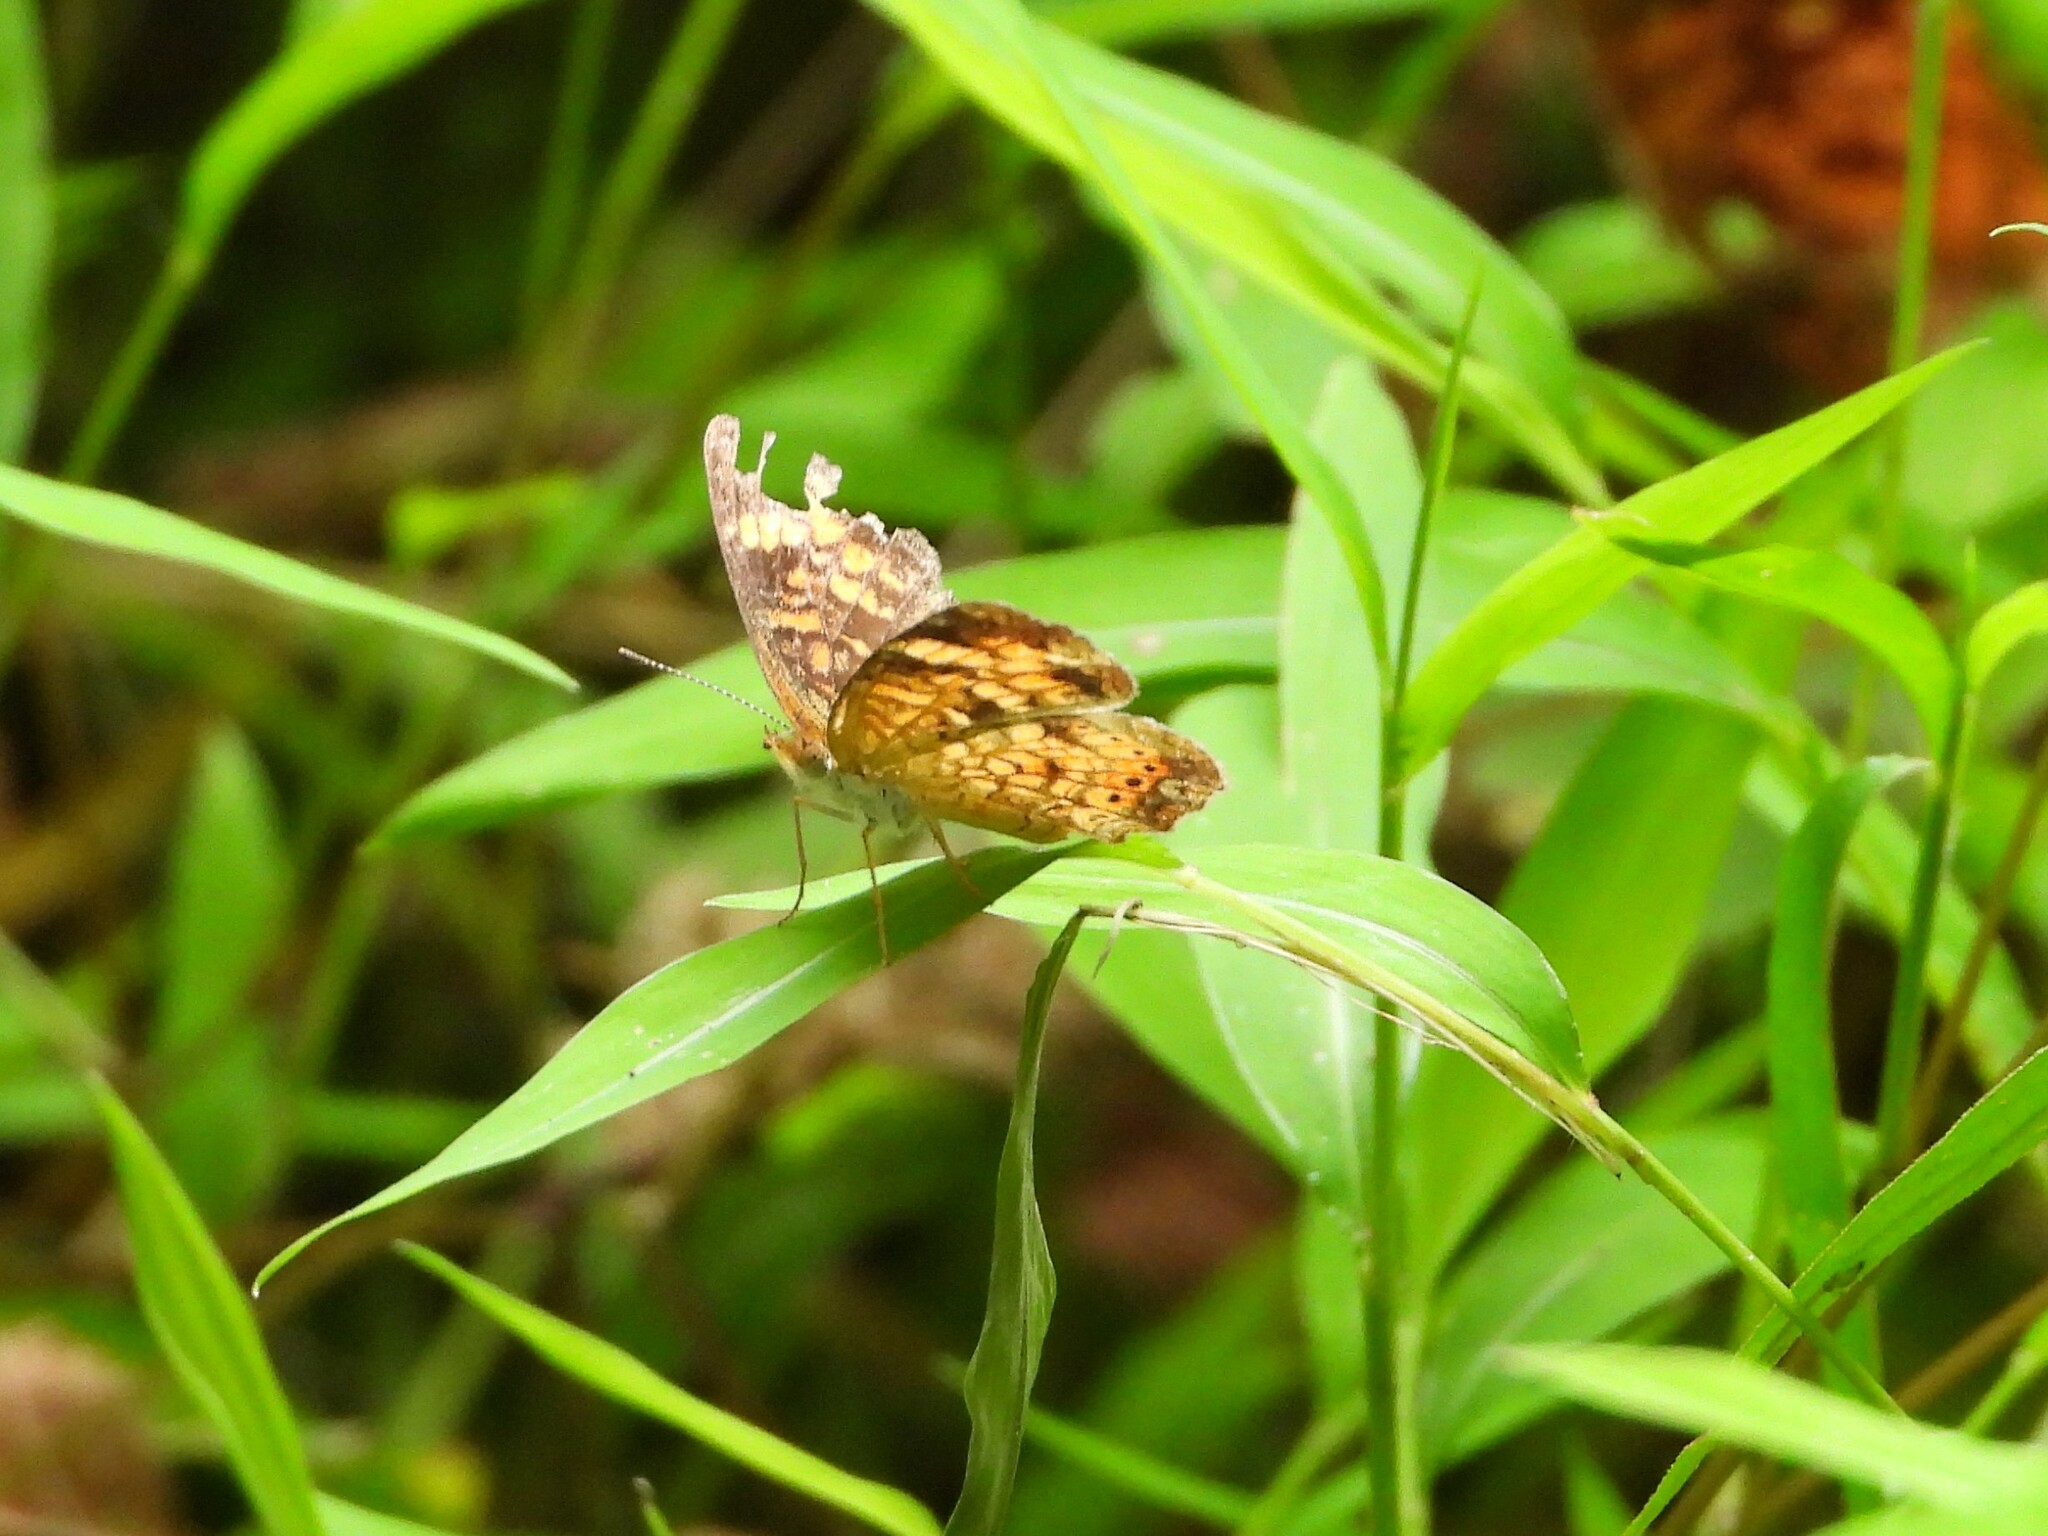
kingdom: Animalia
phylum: Arthropoda
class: Insecta
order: Lepidoptera
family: Nymphalidae
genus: Phyciodes
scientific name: Phyciodes tharos
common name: Pearl crescent
